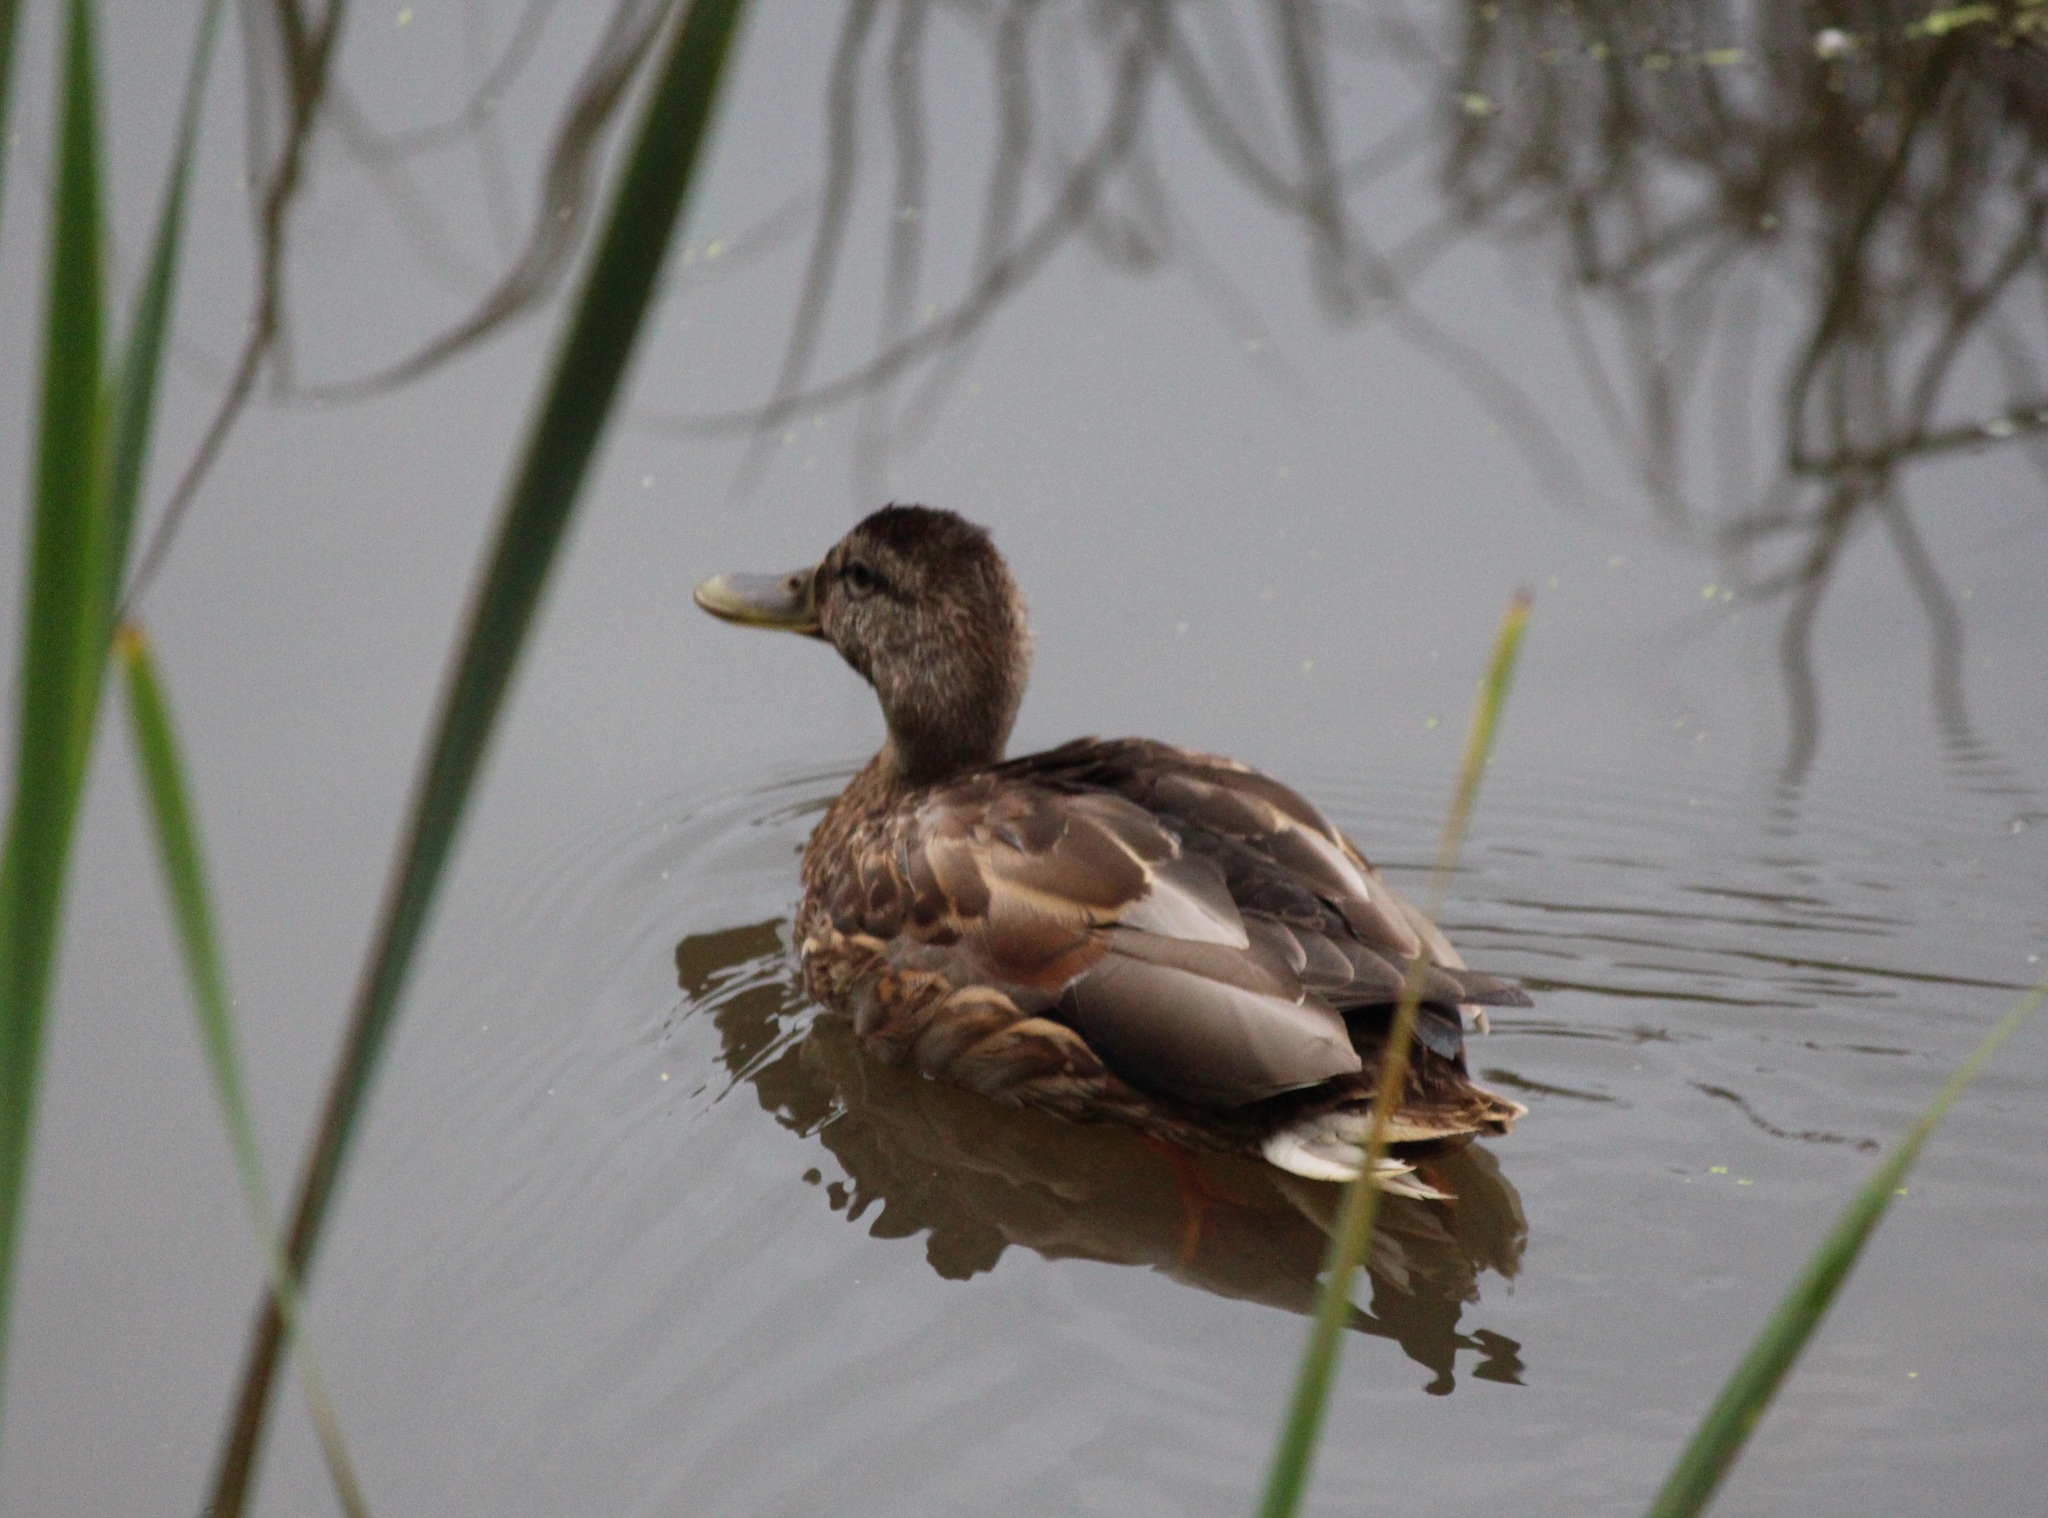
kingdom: Animalia
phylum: Chordata
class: Aves
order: Anseriformes
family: Anatidae
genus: Anas
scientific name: Anas platyrhynchos
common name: Mallard
